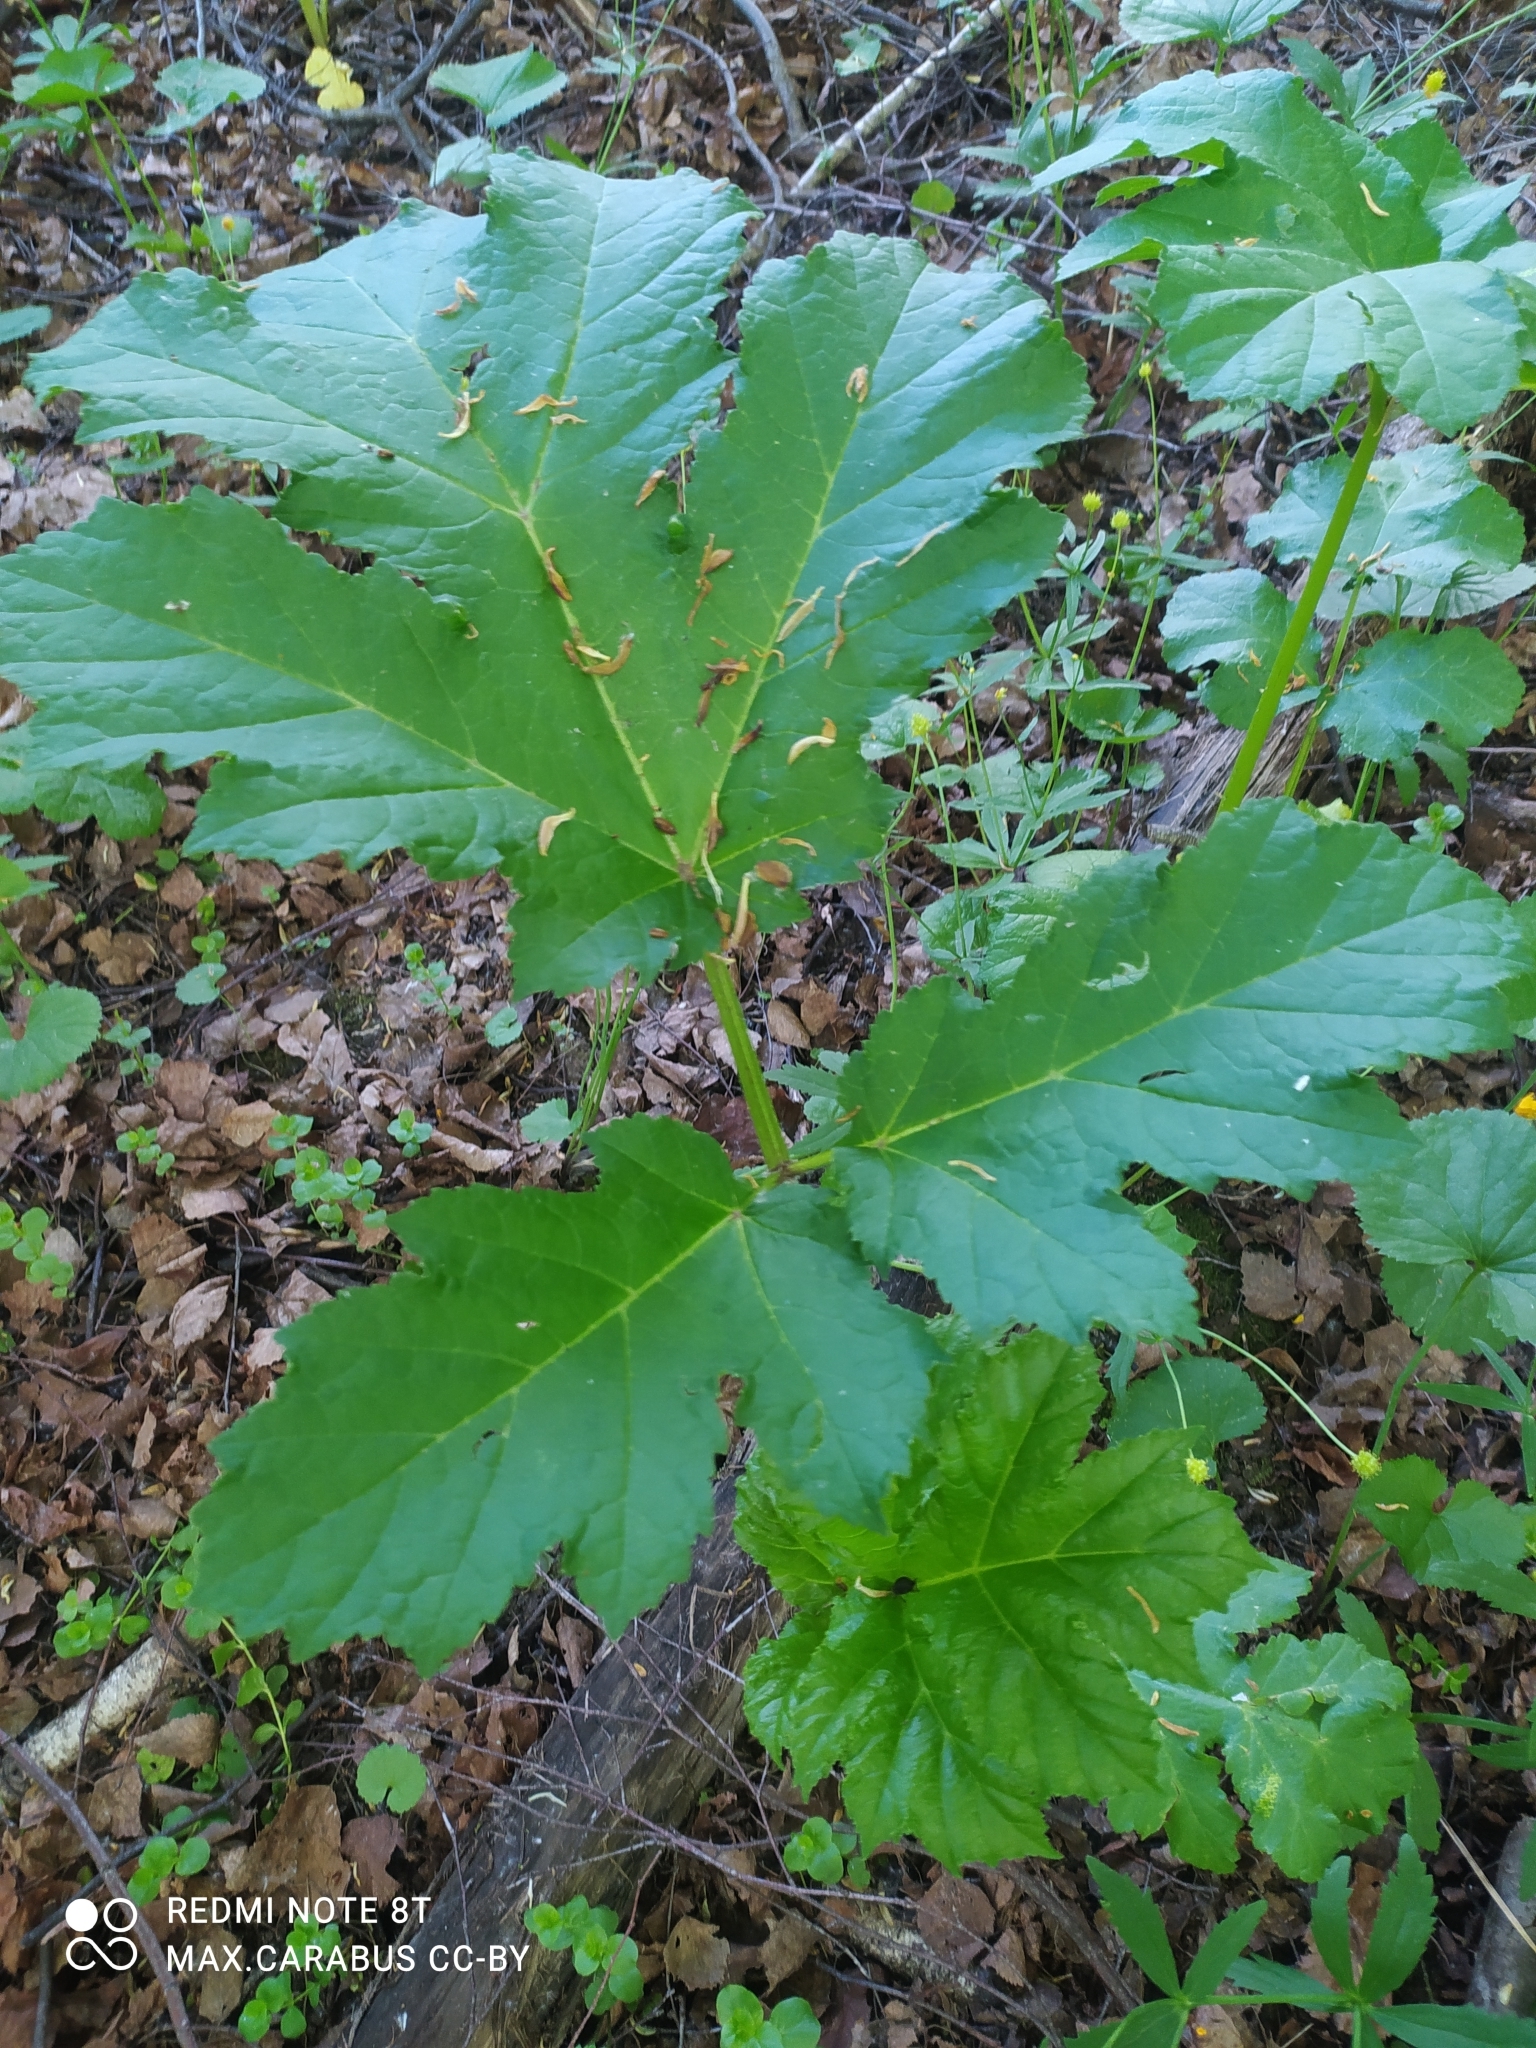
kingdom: Plantae
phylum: Tracheophyta
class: Magnoliopsida
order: Apiales
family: Apiaceae
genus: Heracleum
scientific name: Heracleum sosnowskyi
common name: Sosnowsky's hogweed
